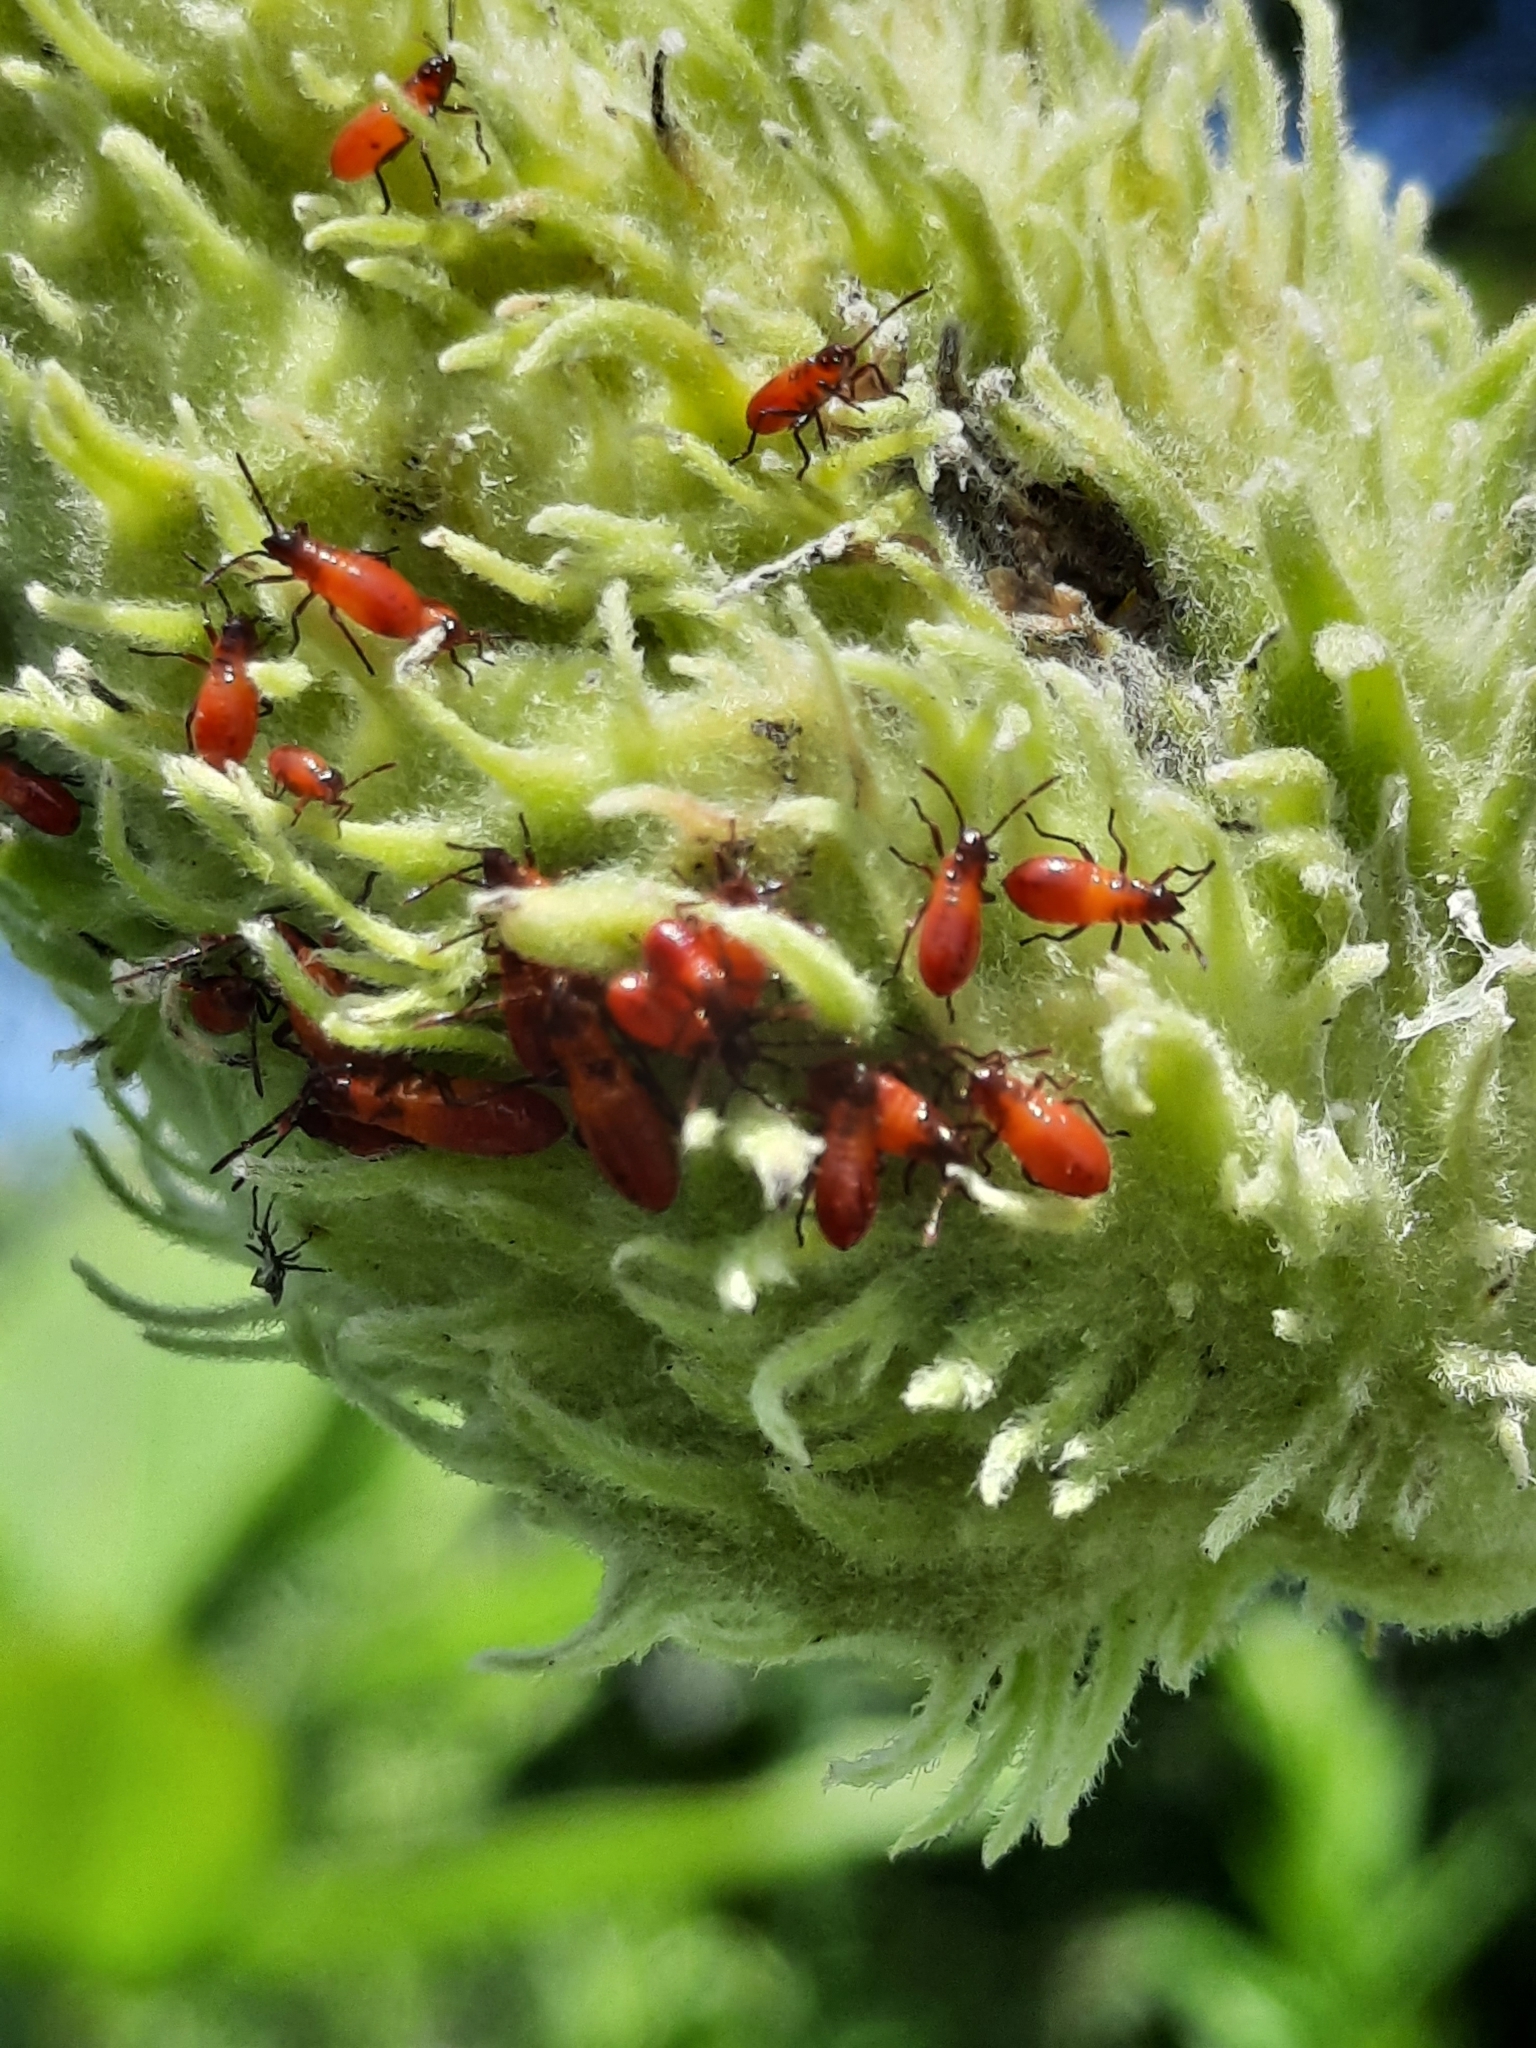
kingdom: Animalia
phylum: Arthropoda
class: Insecta
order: Hemiptera
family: Lygaeidae
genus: Oncopeltus
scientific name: Oncopeltus fasciatus
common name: Large milkweed bug
